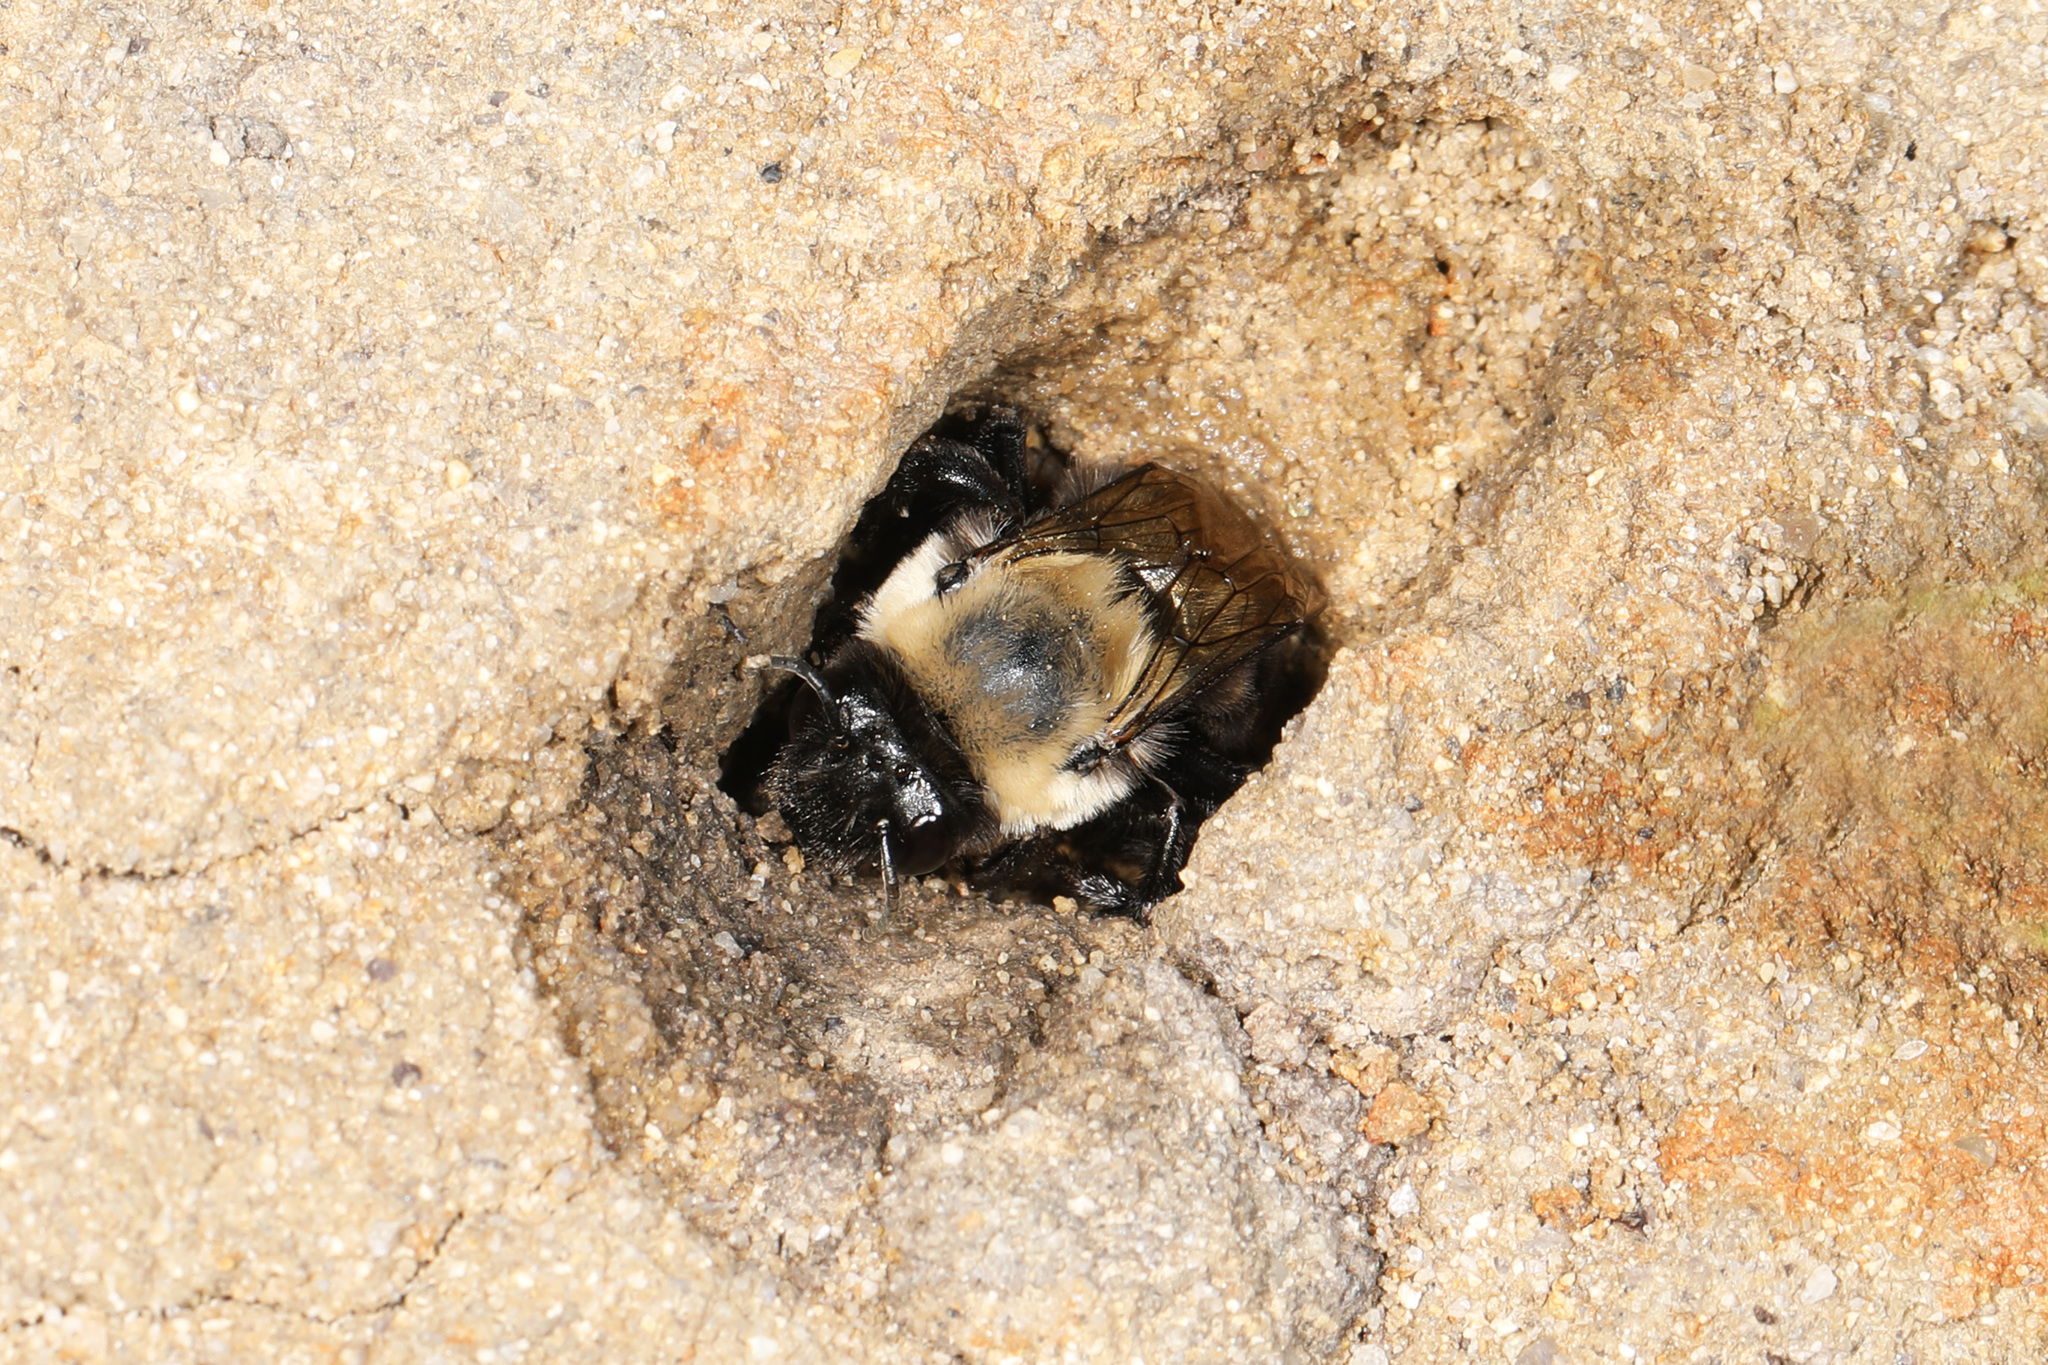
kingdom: Animalia
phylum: Arthropoda
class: Insecta
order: Hymenoptera
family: Apidae
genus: Anthophora
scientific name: Anthophora abrupta
